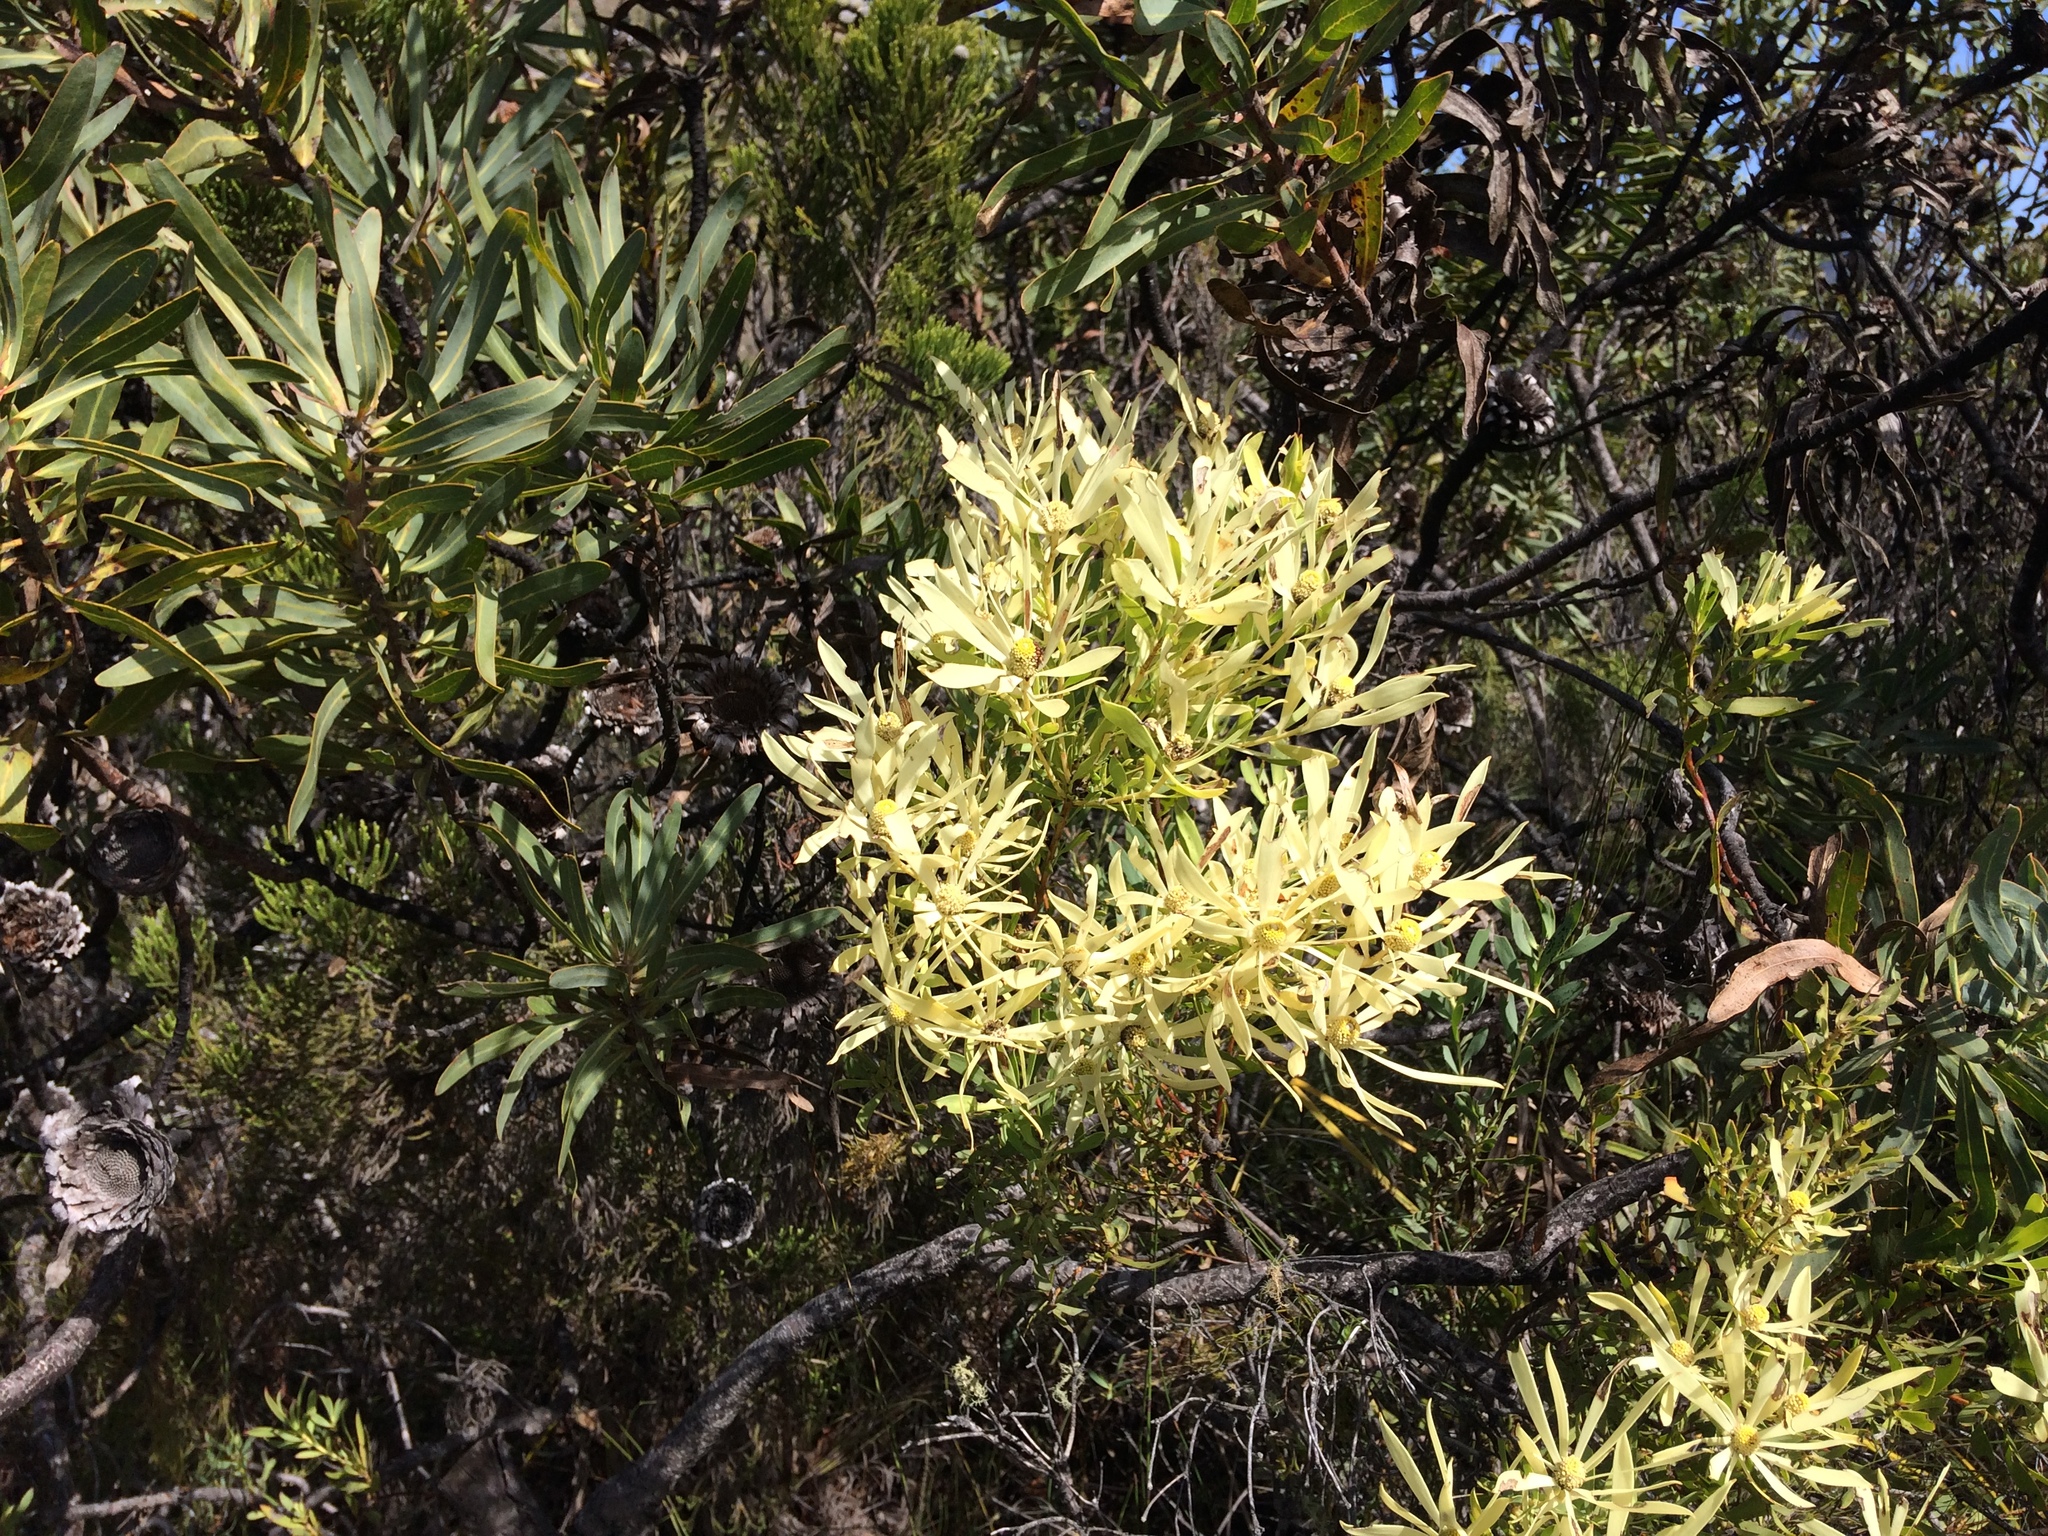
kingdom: Plantae
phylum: Tracheophyta
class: Magnoliopsida
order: Proteales
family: Proteaceae
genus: Leucadendron
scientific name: Leucadendron salignum
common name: Common sunshine conebush
